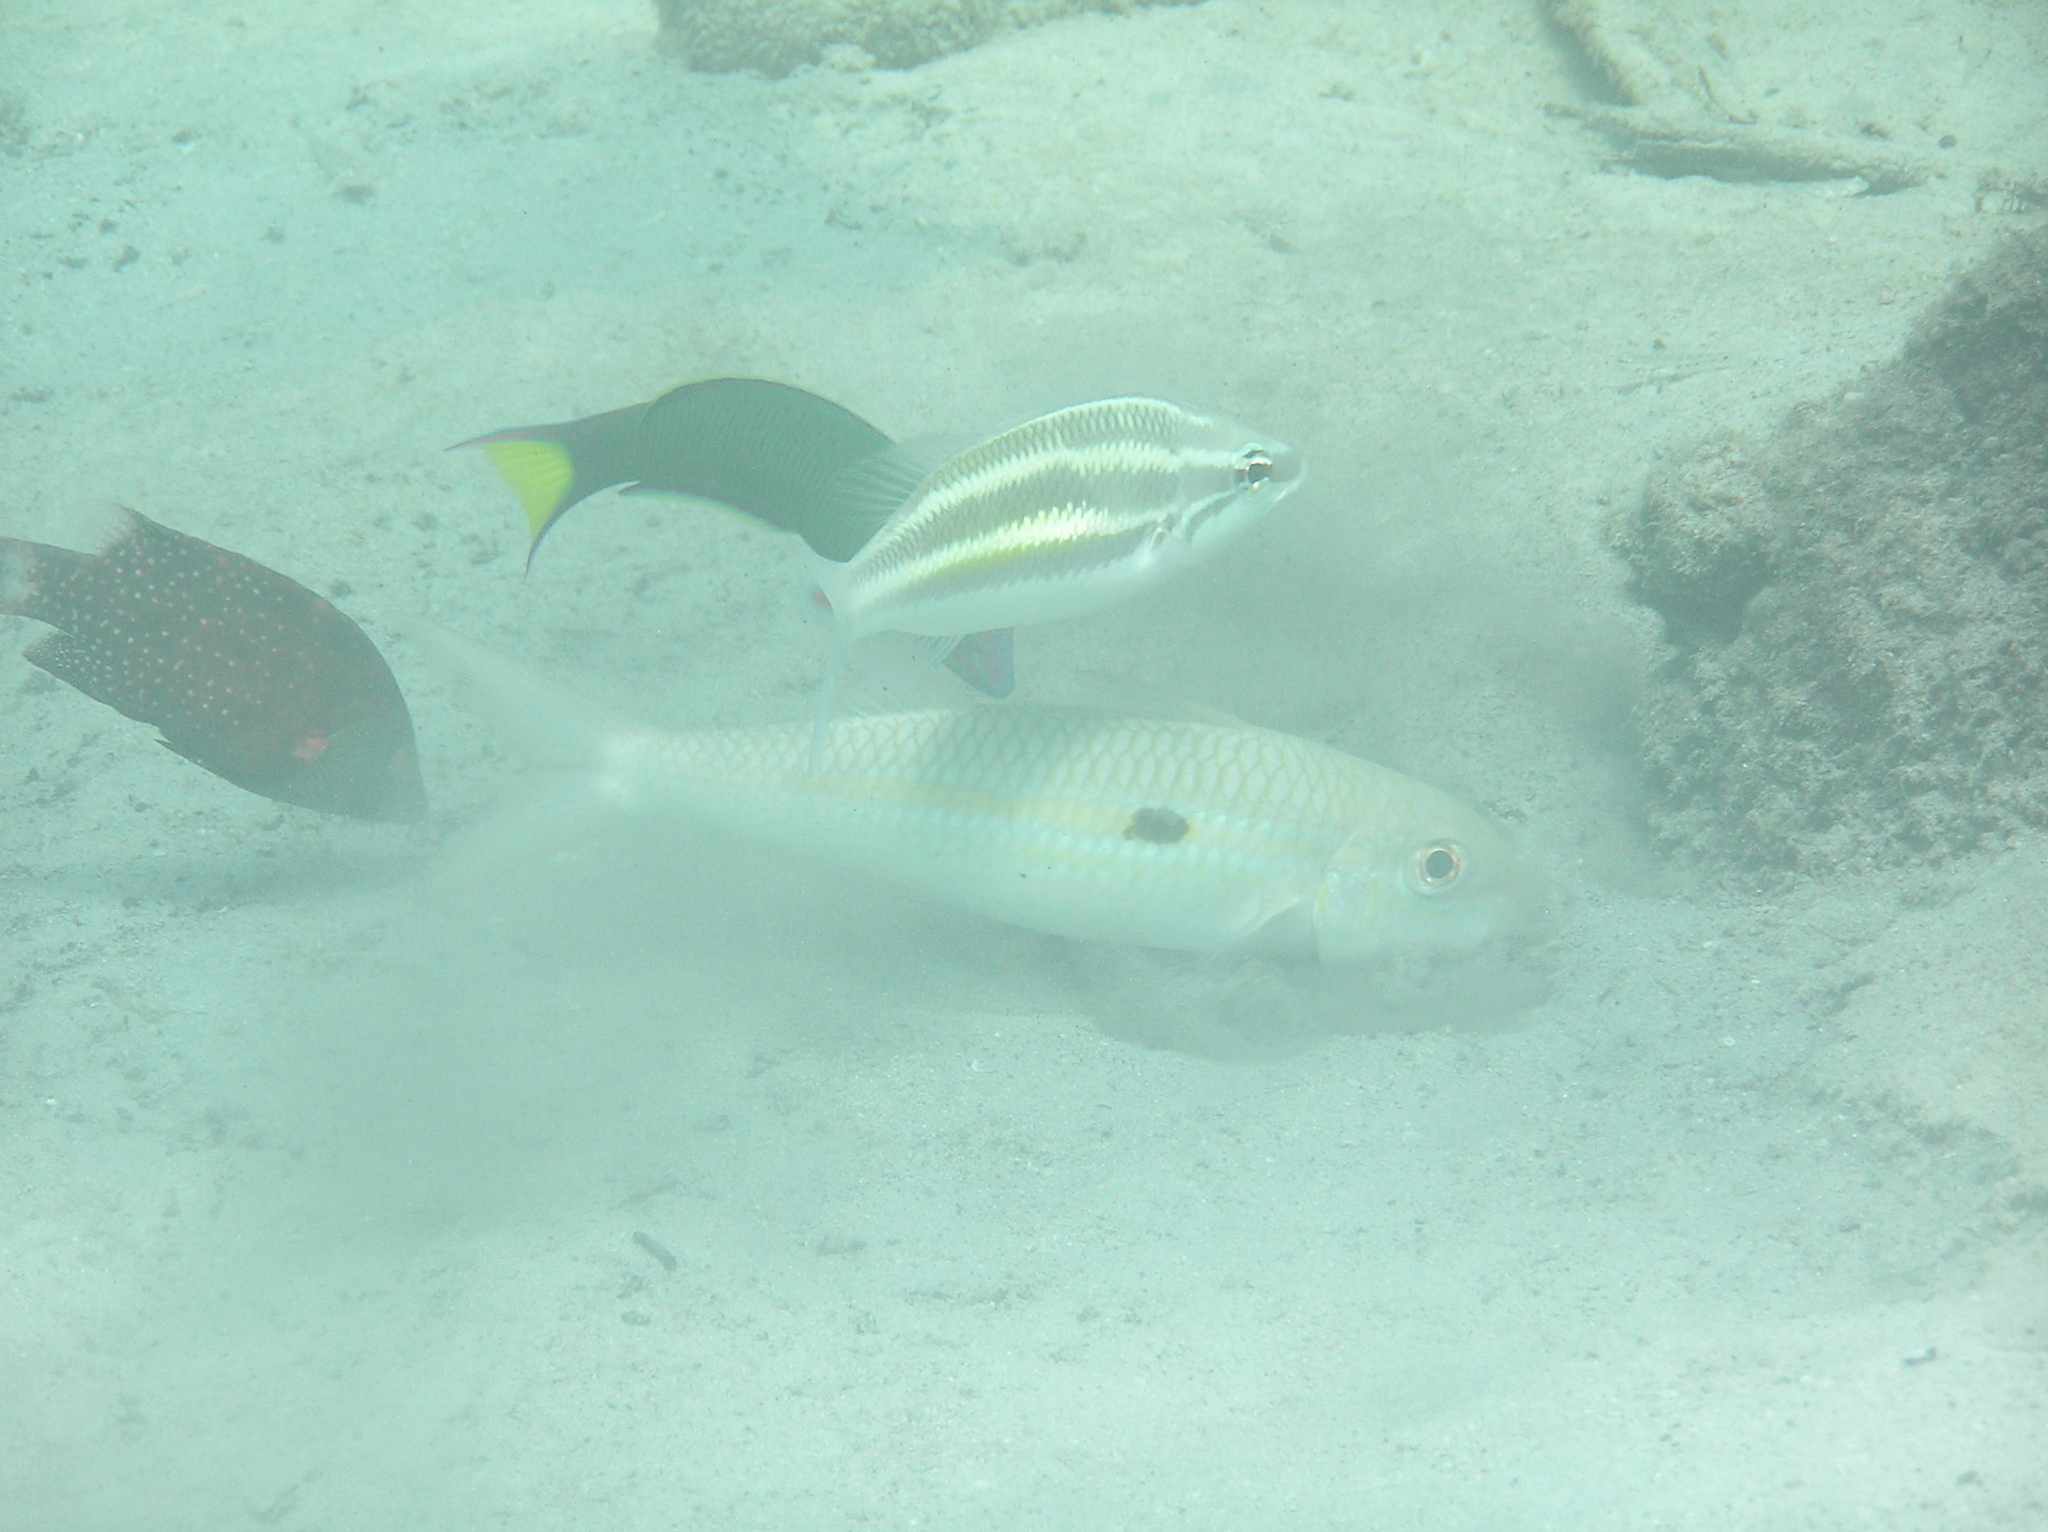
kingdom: Animalia
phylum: Chordata
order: Perciformes
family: Nemipteridae
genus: Pentapodus
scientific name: Pentapodus trivittatus
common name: Three-striped whiptail
